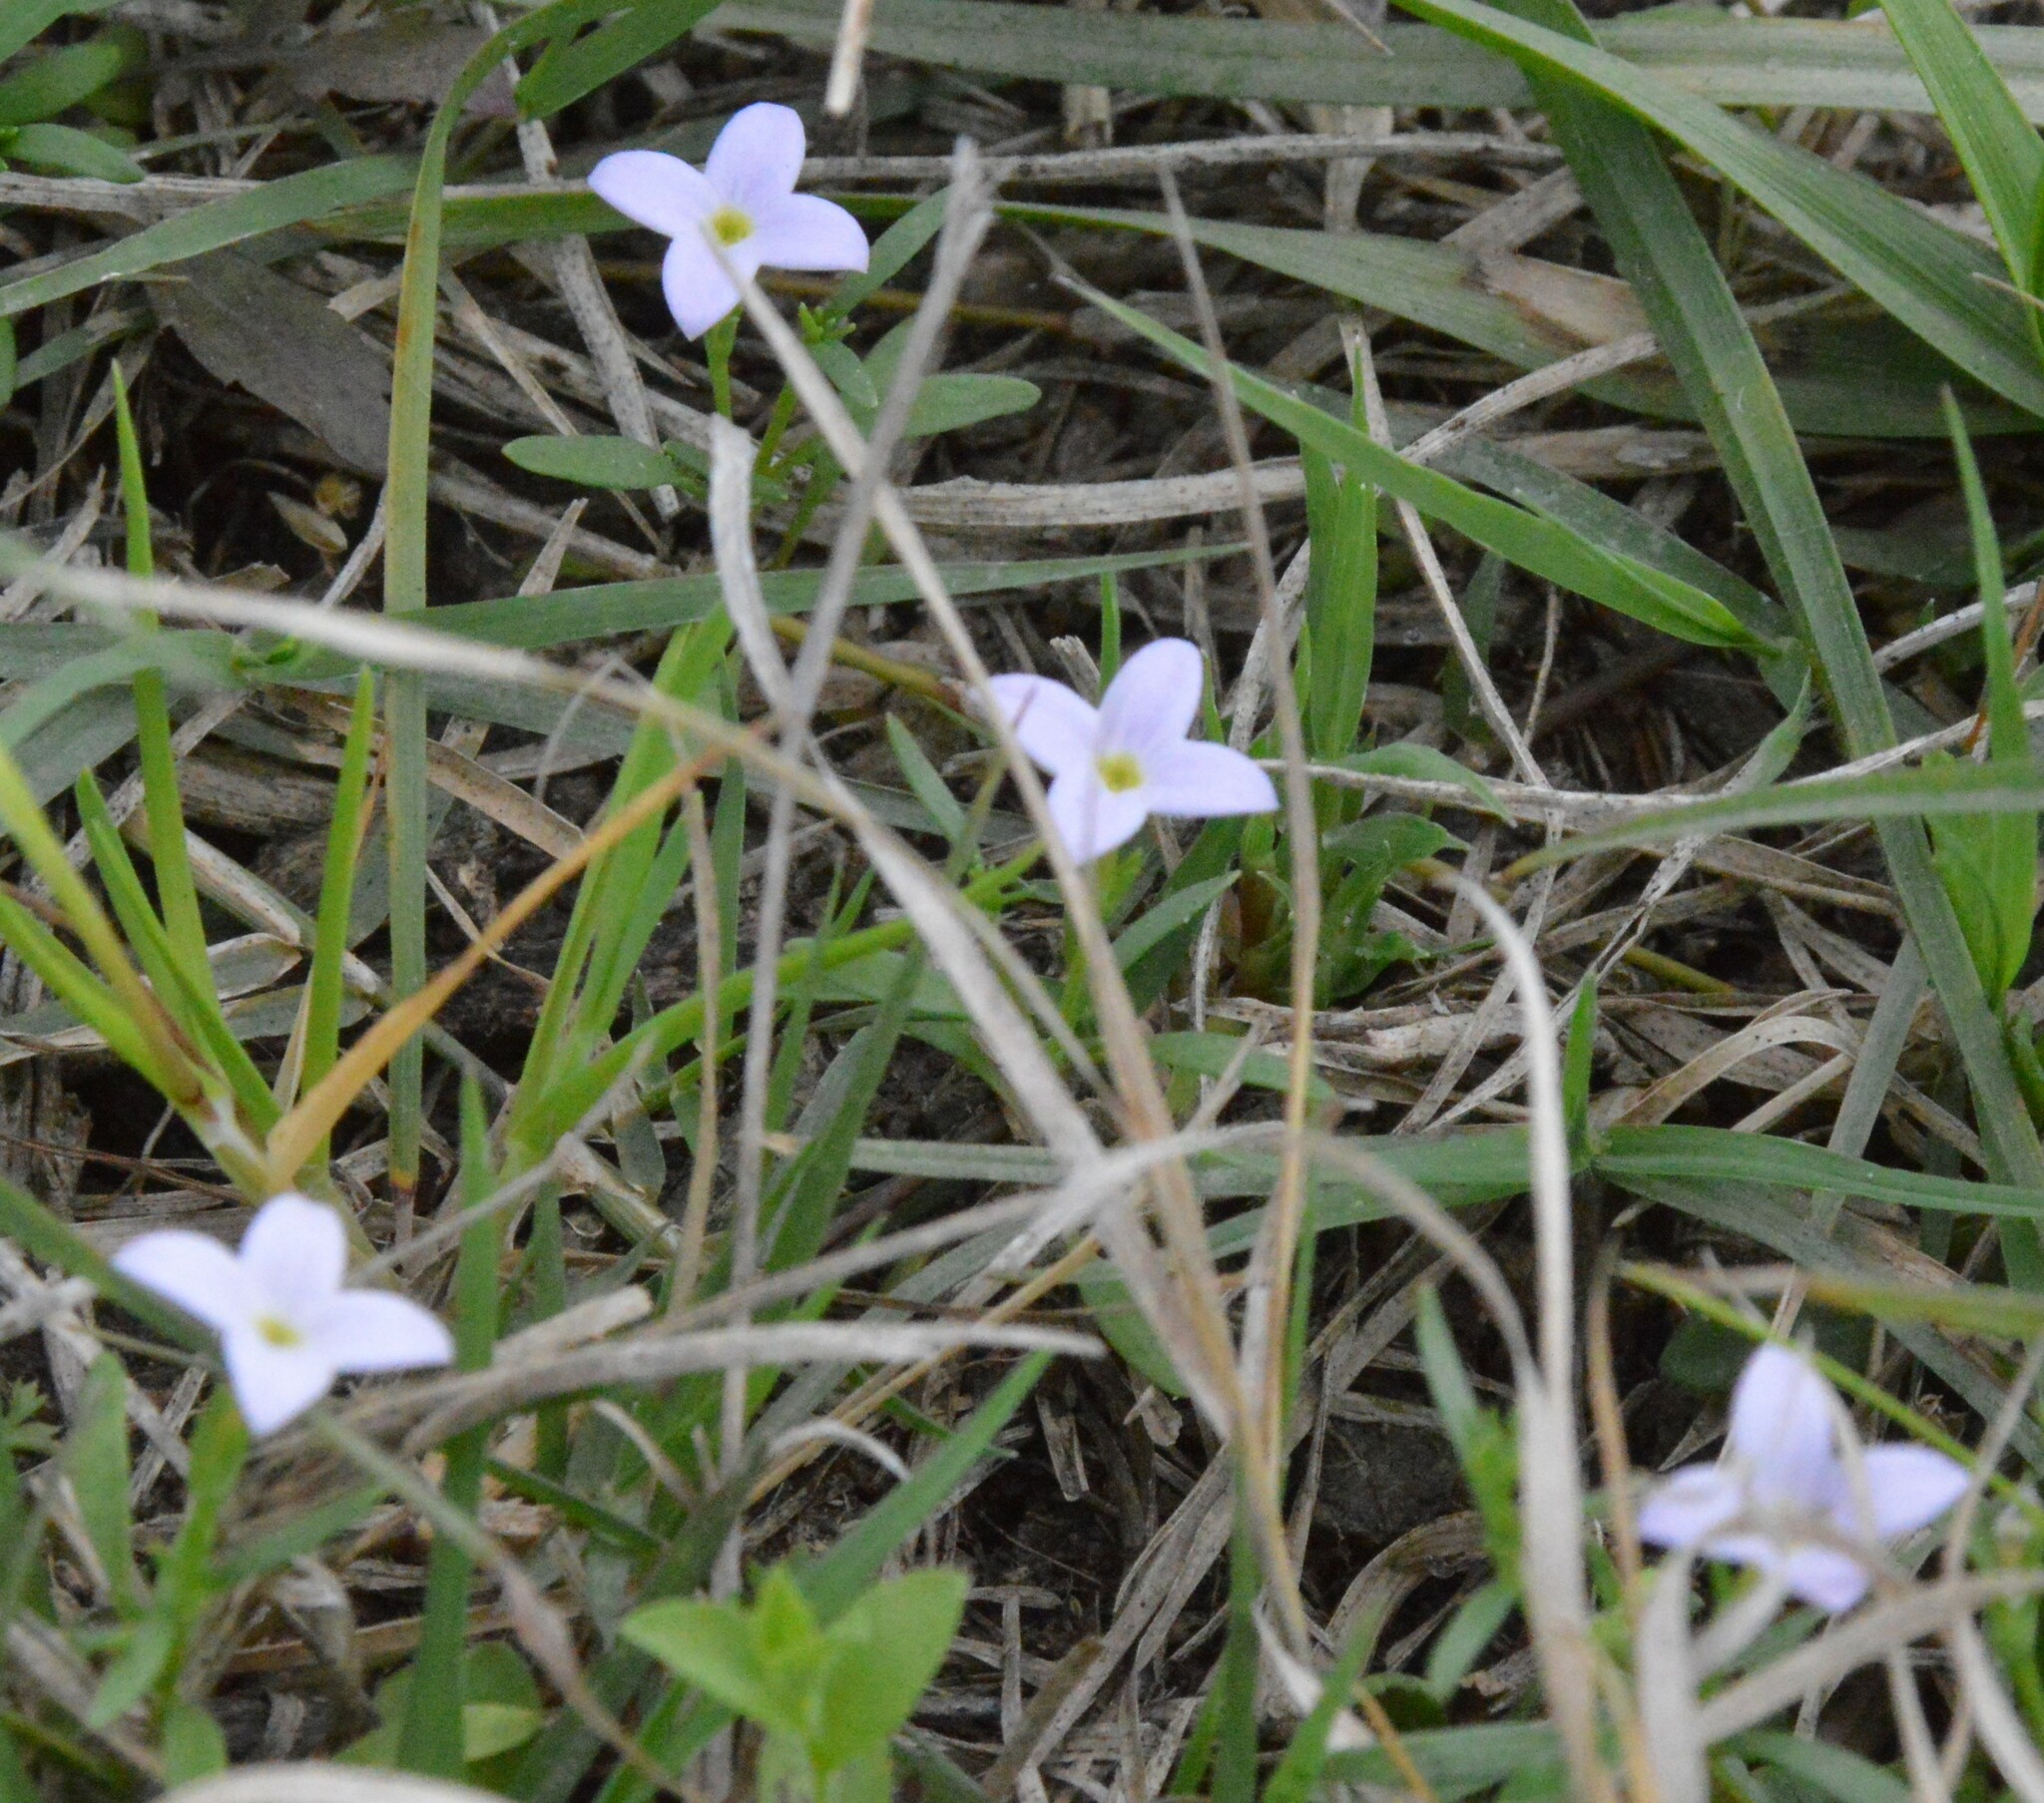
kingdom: Plantae
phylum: Tracheophyta
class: Magnoliopsida
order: Gentianales
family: Rubiaceae
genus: Houstonia
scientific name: Houstonia rosea
